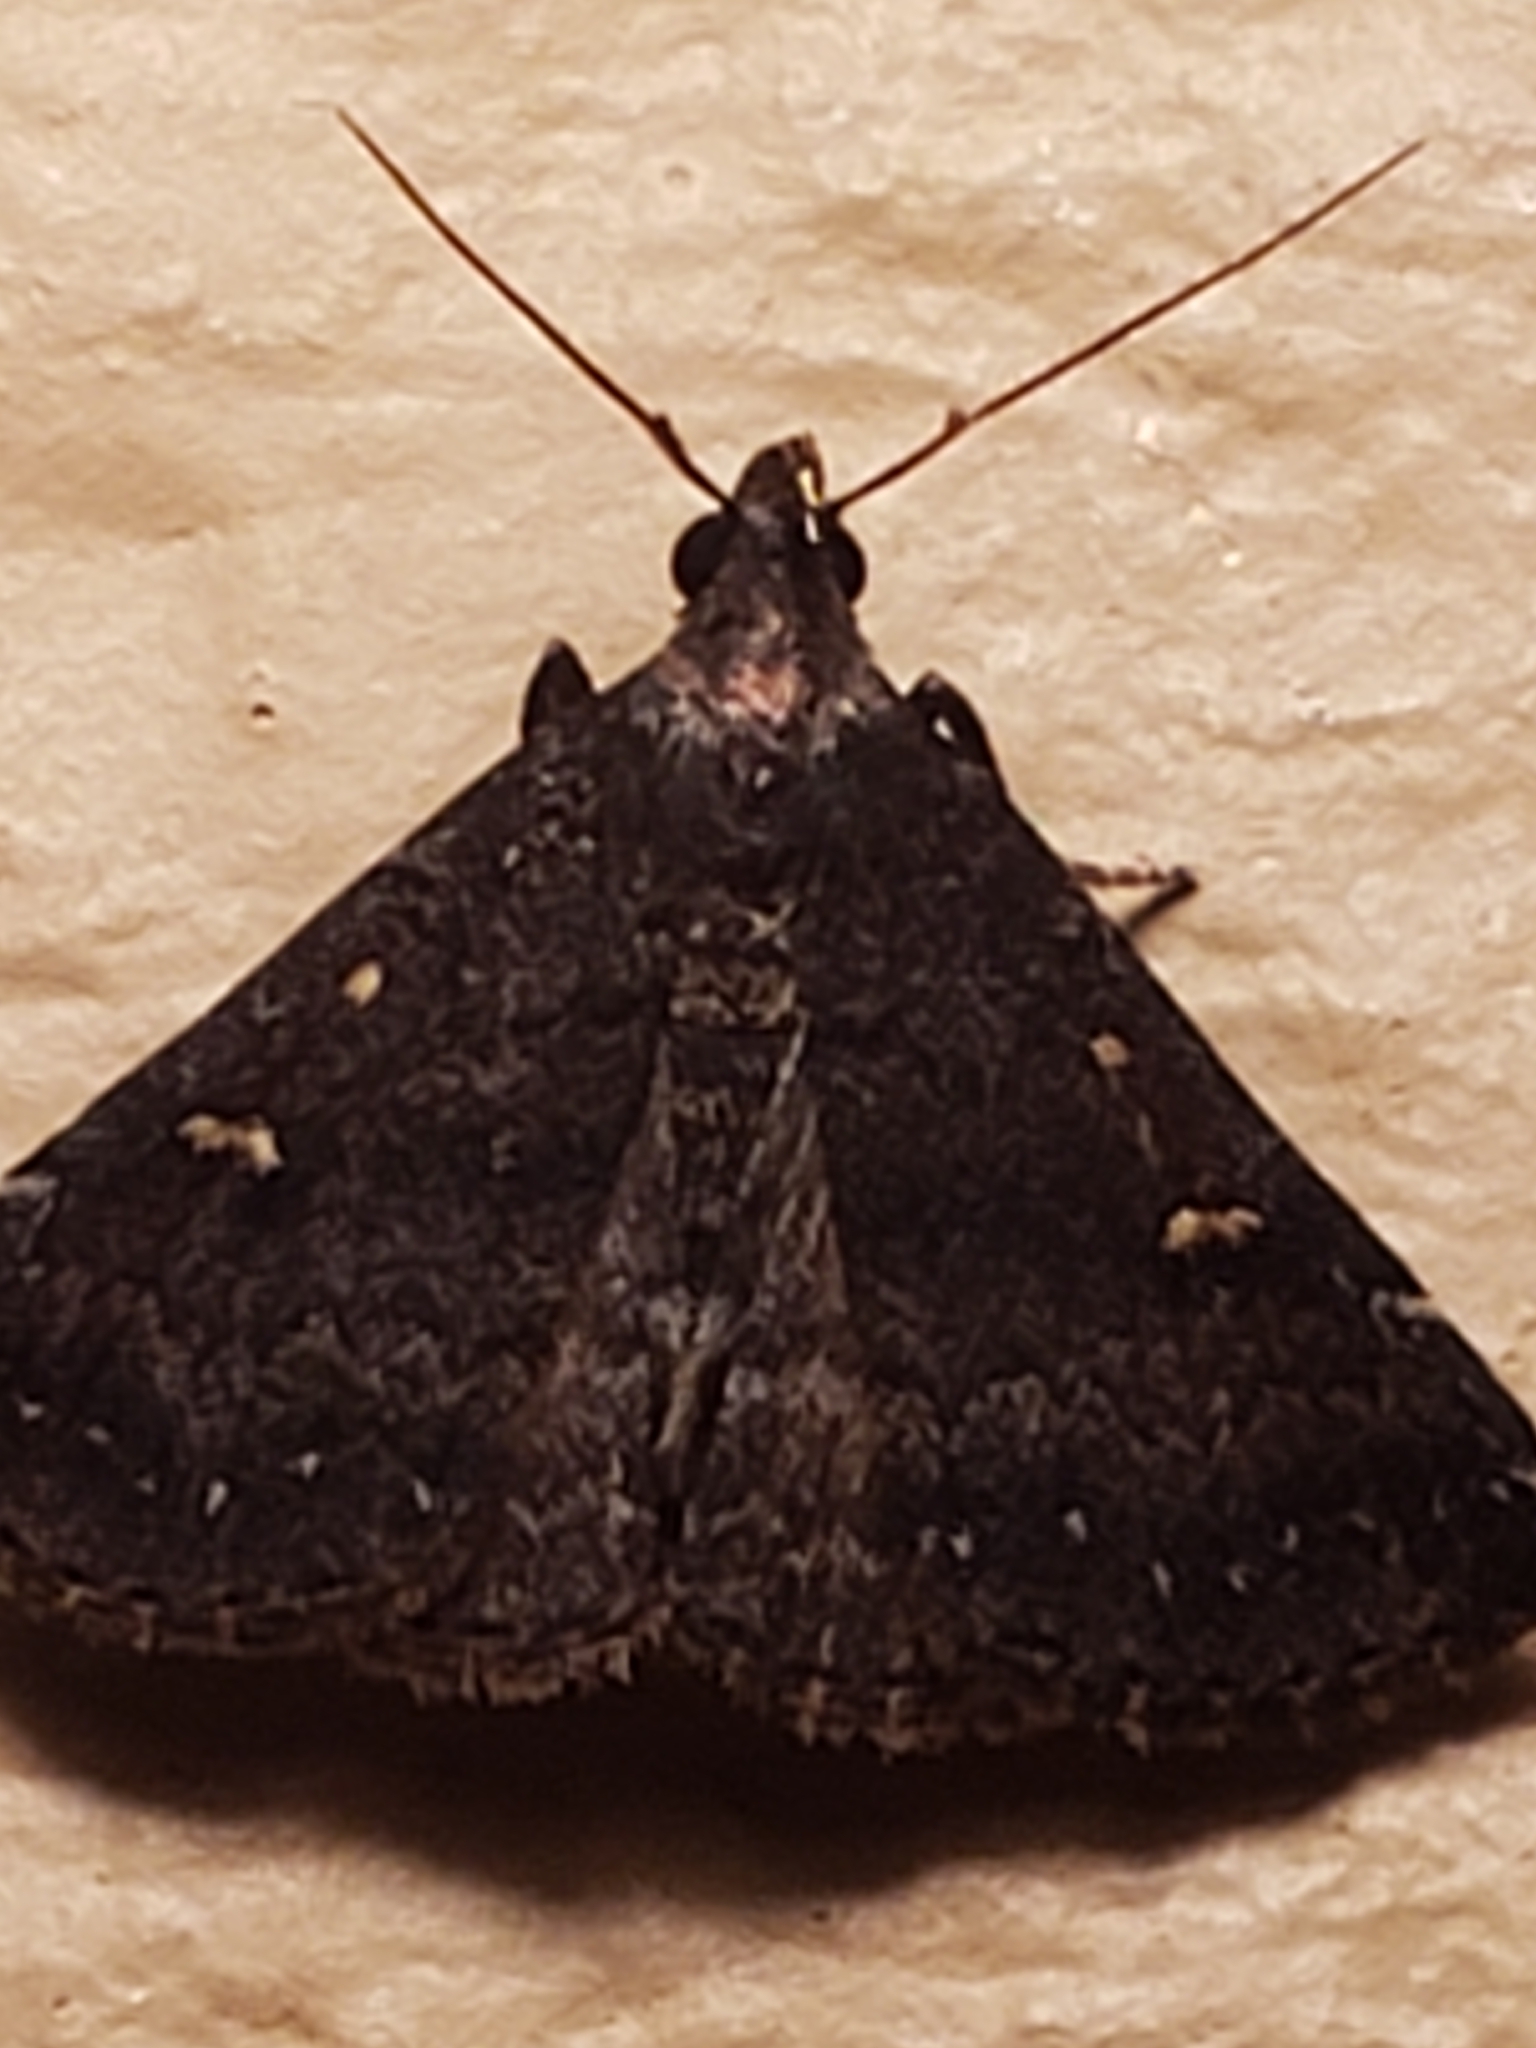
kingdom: Animalia
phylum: Arthropoda
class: Insecta
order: Lepidoptera
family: Erebidae
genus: Tetanolita
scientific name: Tetanolita mynesalis
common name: Smoky tetanolita moth
